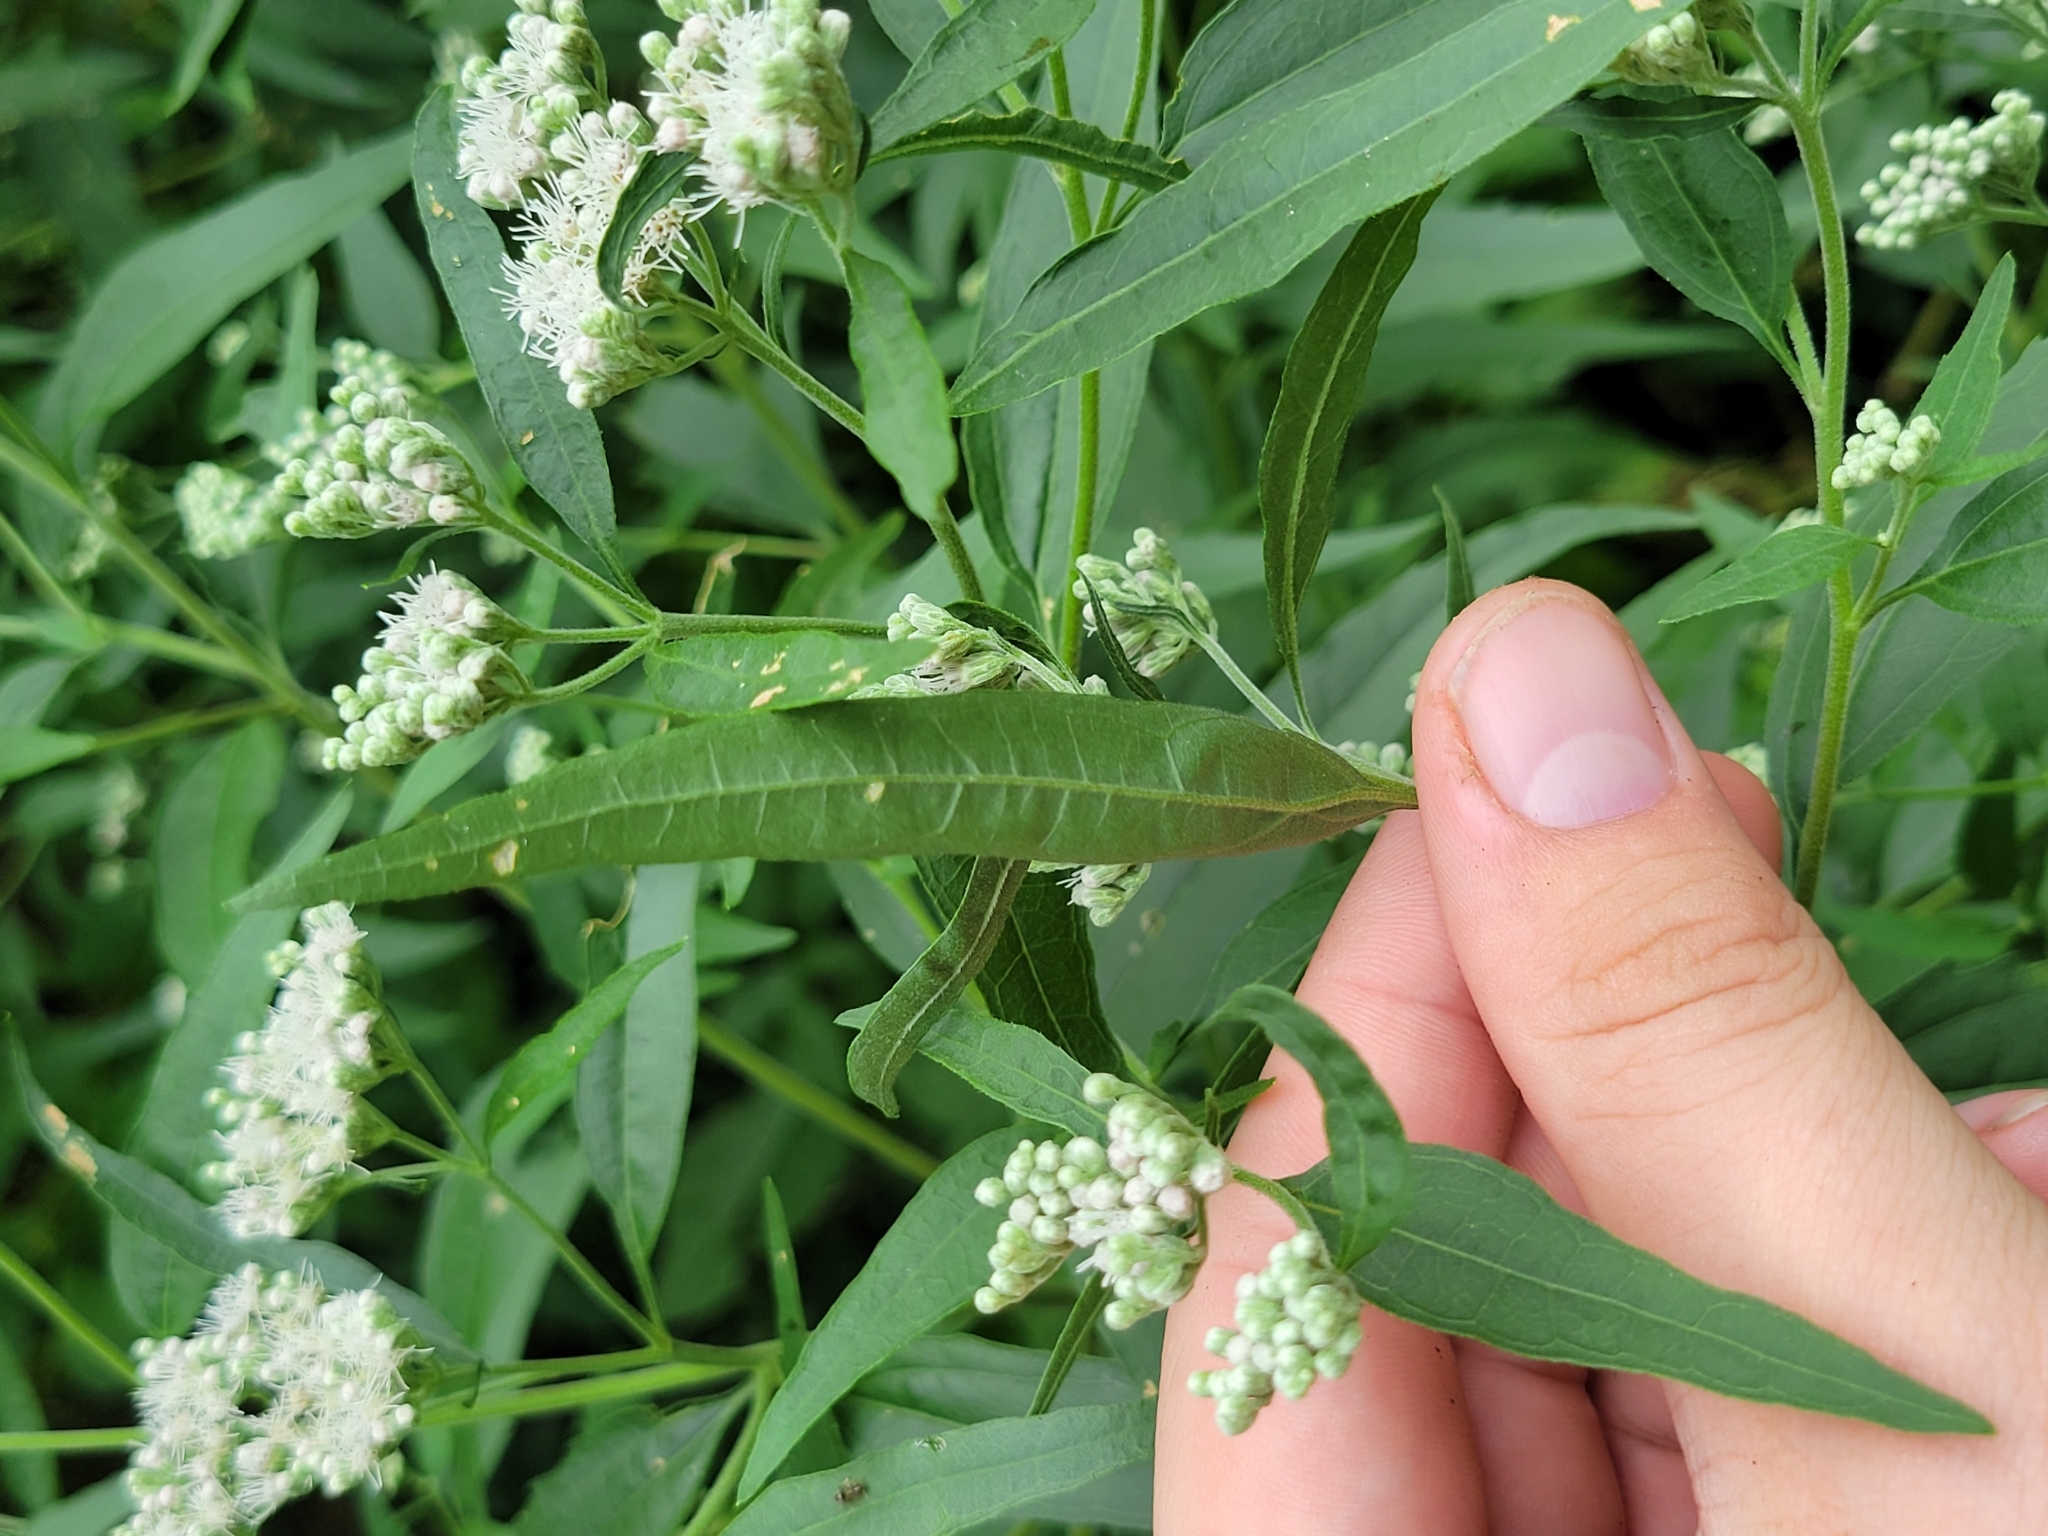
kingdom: Plantae
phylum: Tracheophyta
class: Magnoliopsida
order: Asterales
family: Asteraceae
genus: Eupatorium
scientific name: Eupatorium serotinum
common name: Late boneset
